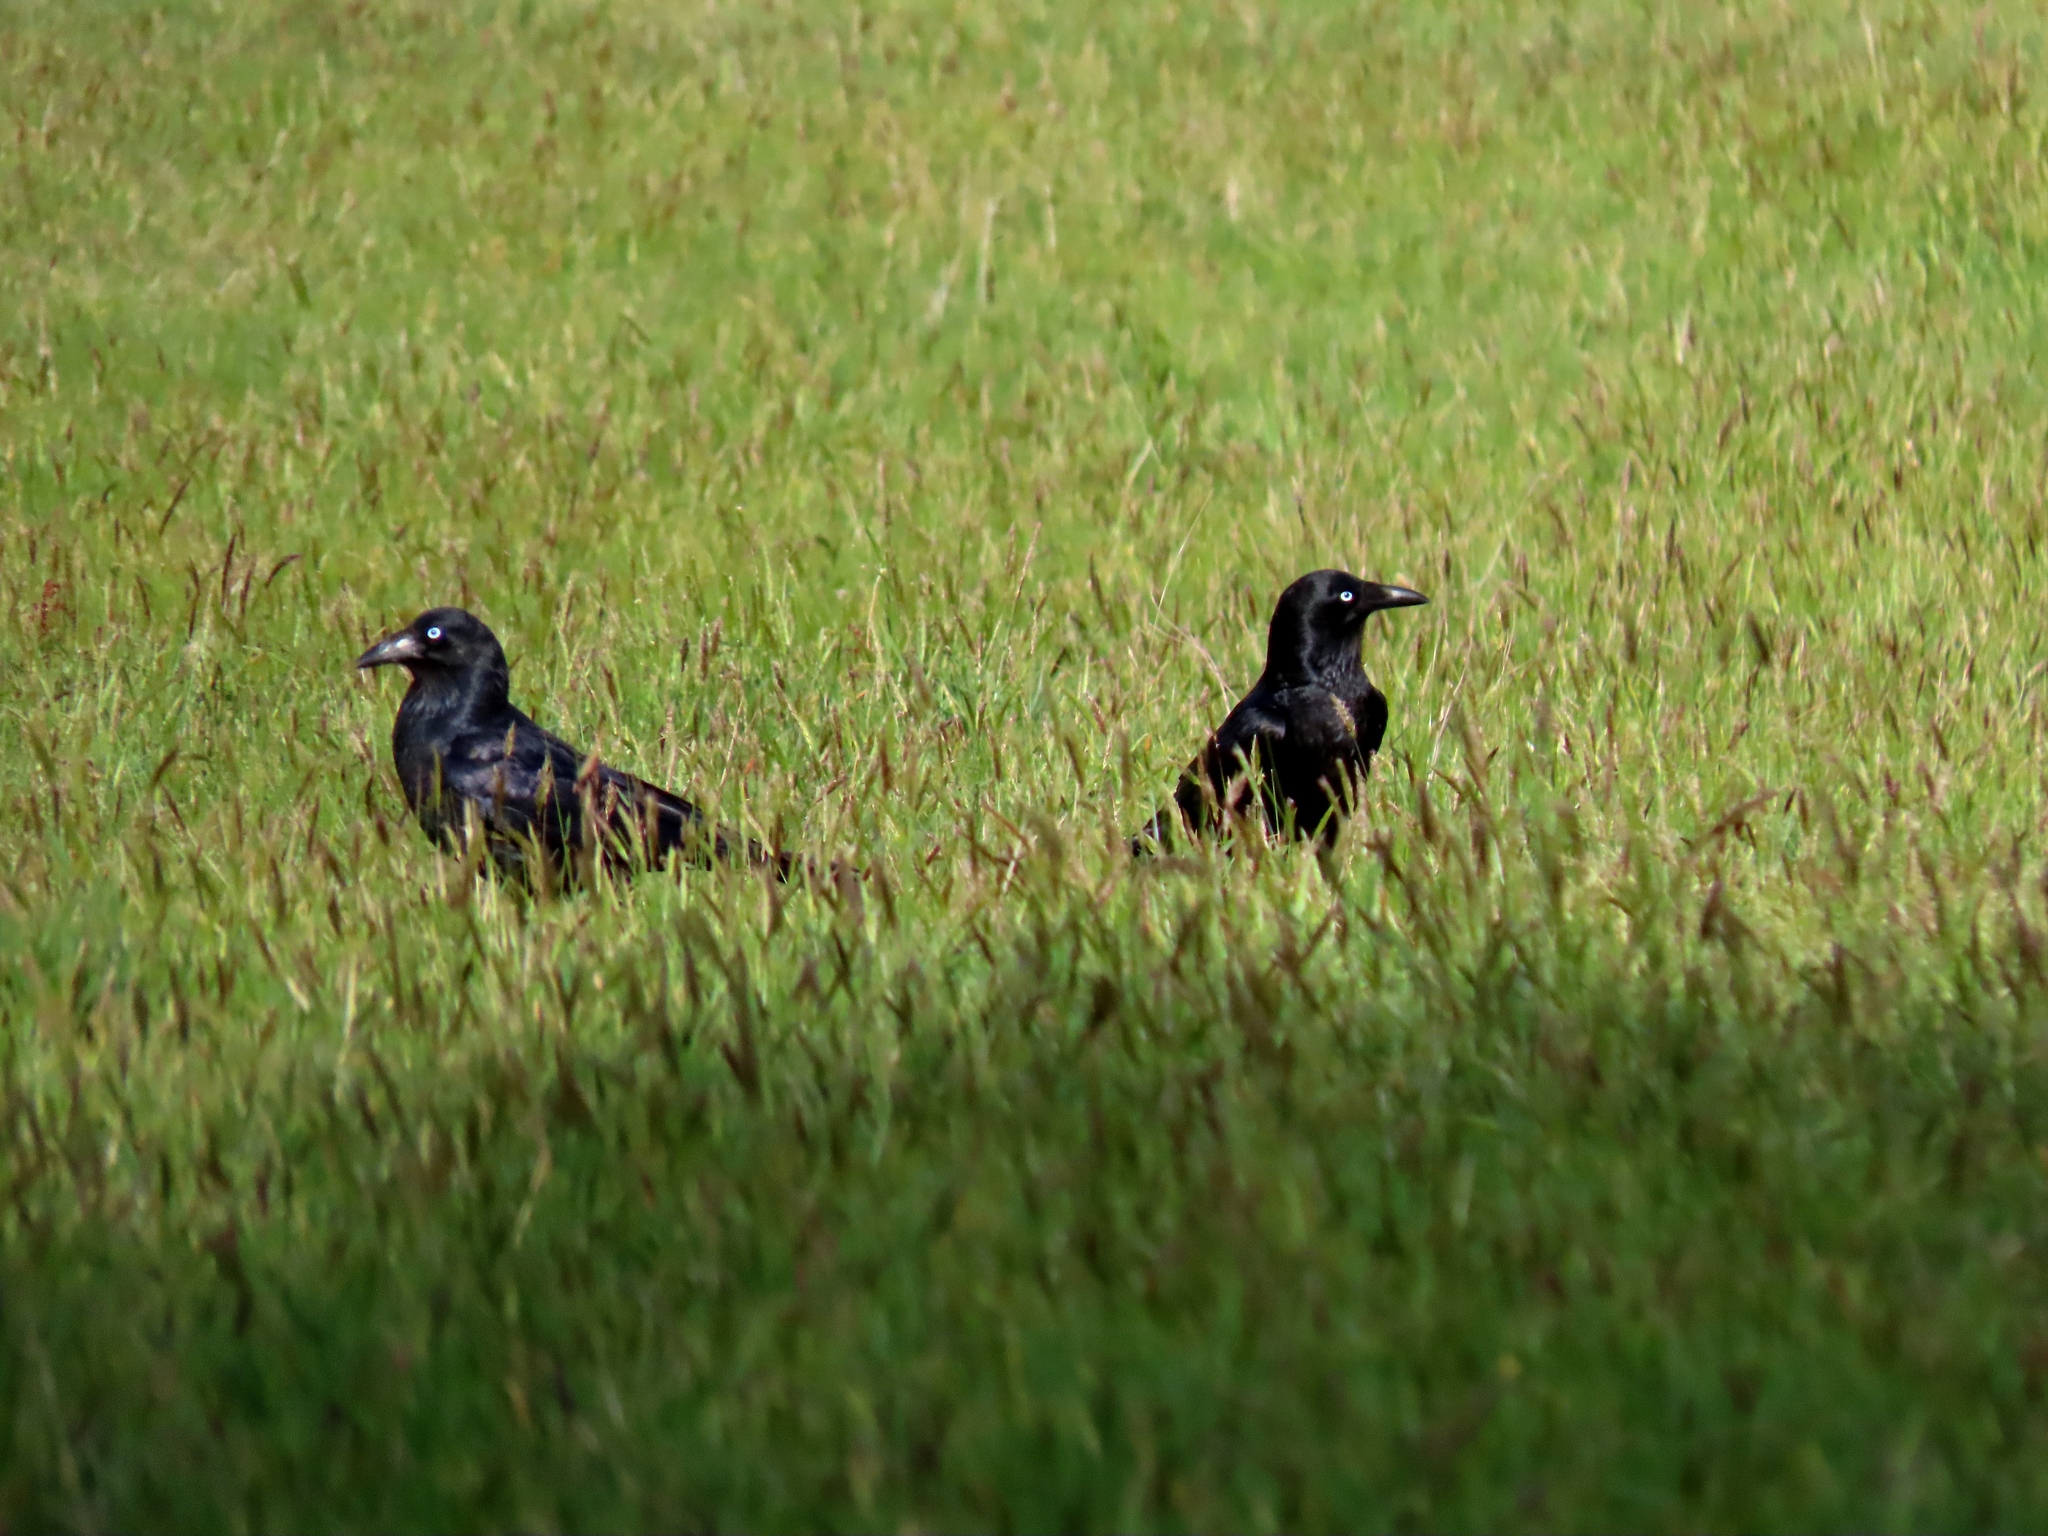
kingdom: Animalia
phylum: Chordata
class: Aves
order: Passeriformes
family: Corvidae
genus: Corvus
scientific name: Corvus mellori
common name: Little raven
